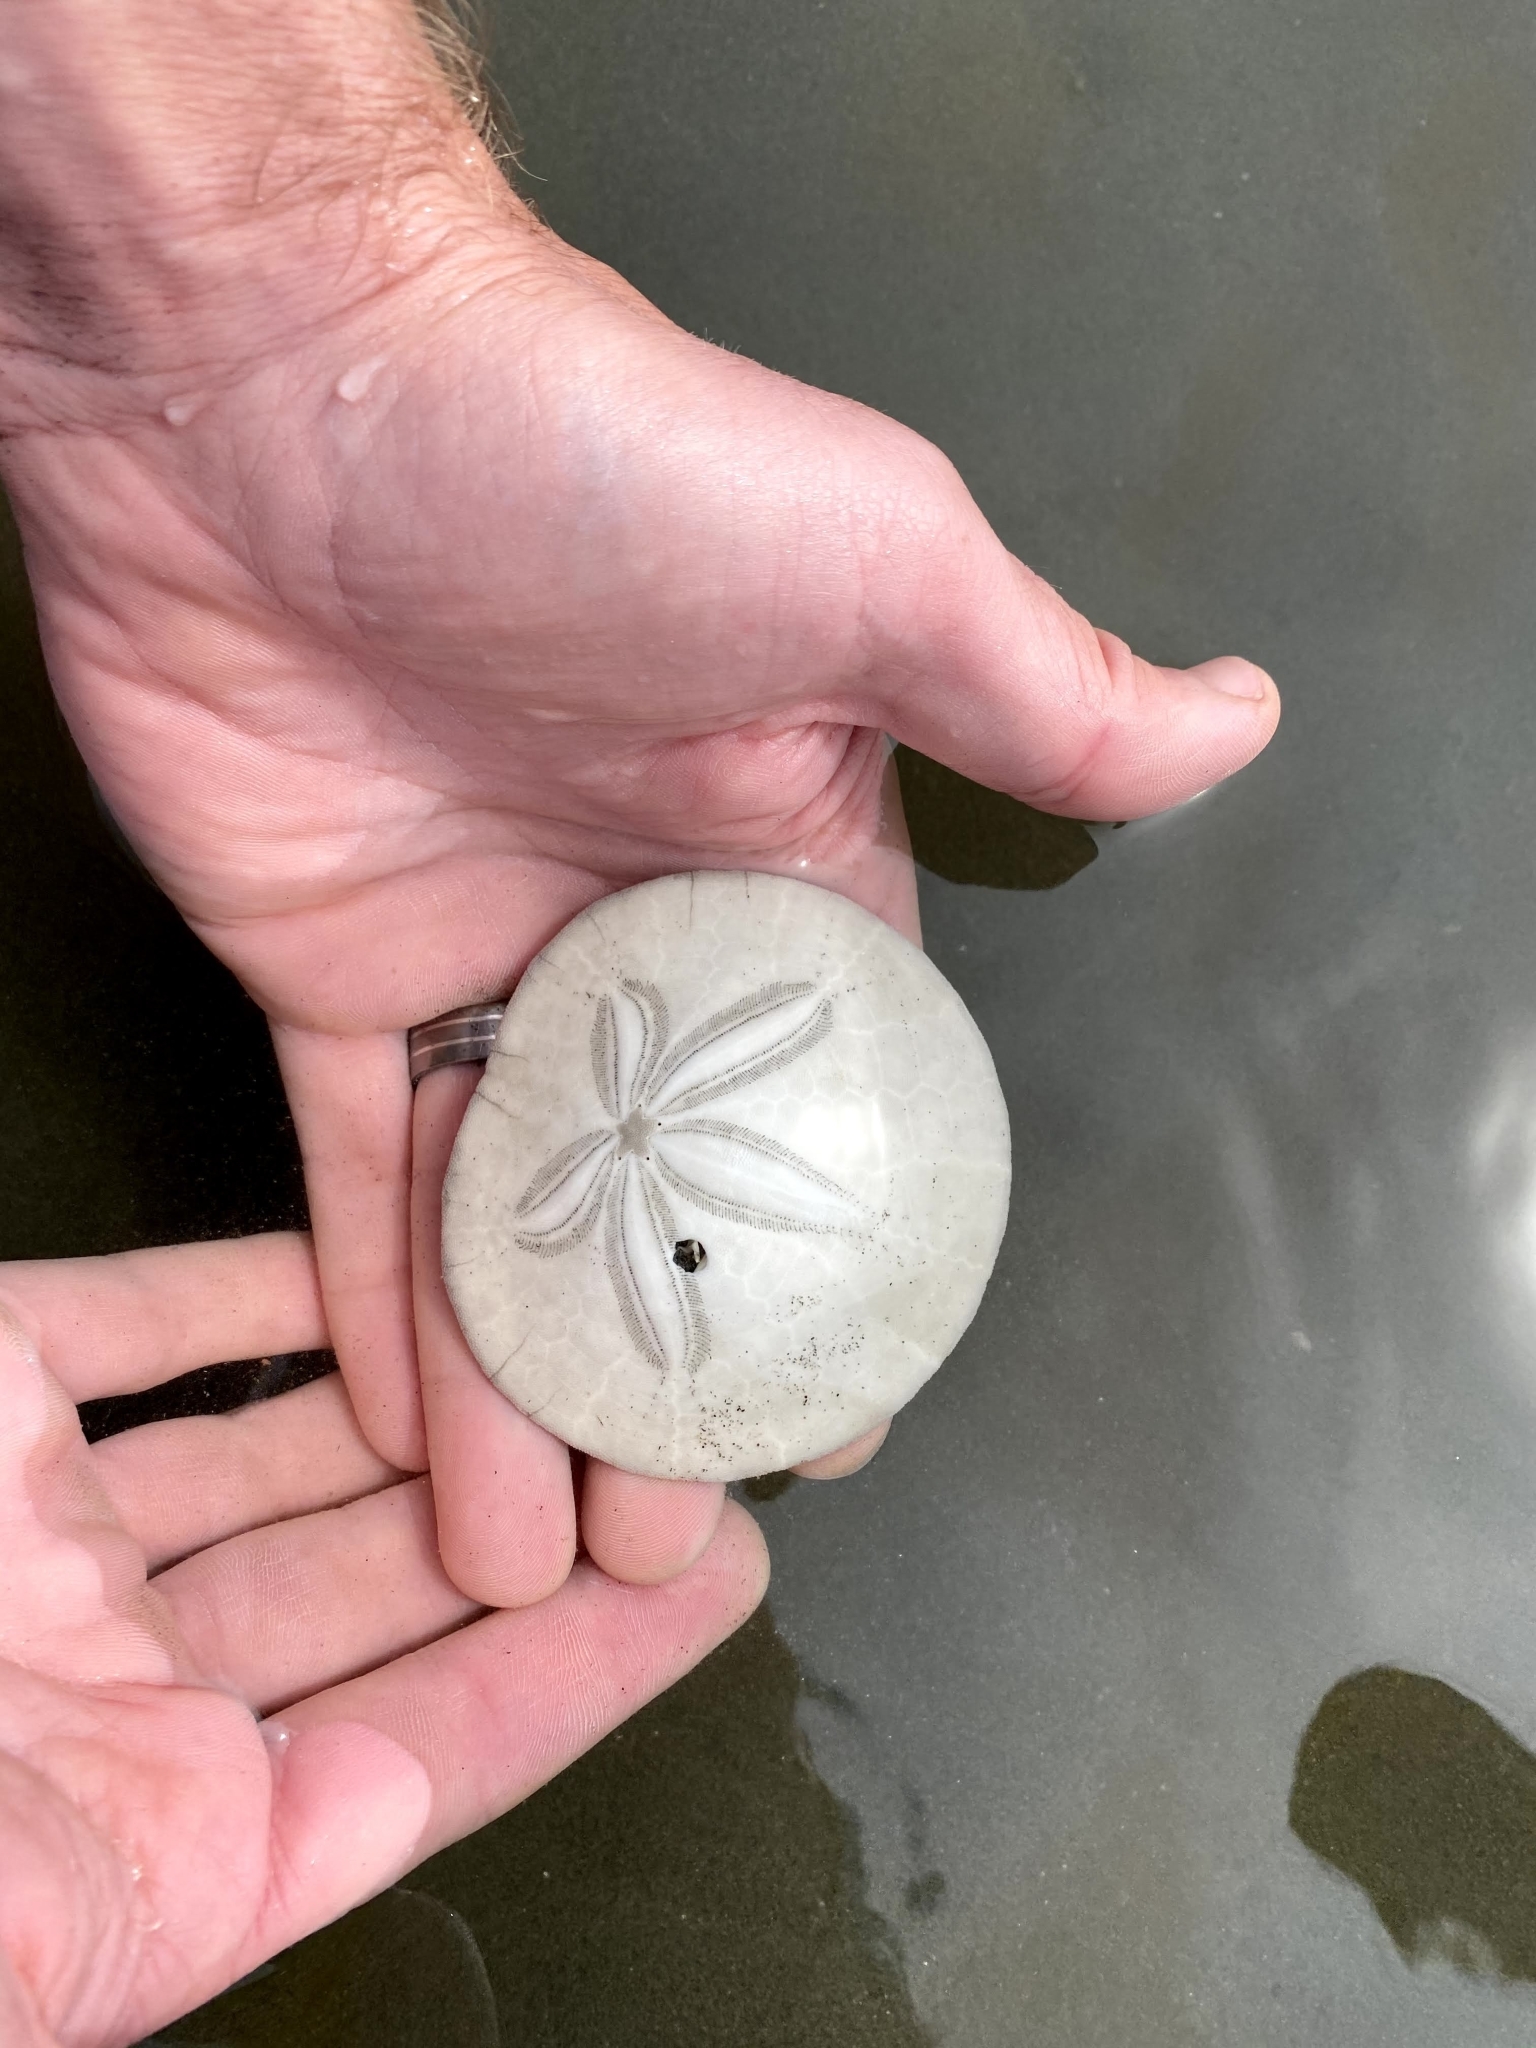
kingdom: Animalia
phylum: Echinodermata
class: Echinoidea
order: Echinolampadacea
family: Dendrasteridae
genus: Dendraster
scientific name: Dendraster excentricus
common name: Eccentric sand dollar sea urchin
